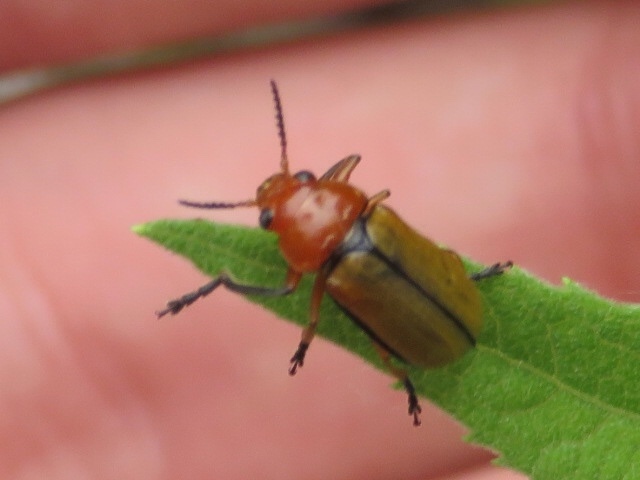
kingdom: Animalia
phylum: Arthropoda
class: Insecta
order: Coleoptera
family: Chrysomelidae
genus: Anomoea
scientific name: Anomoea laticlavia
